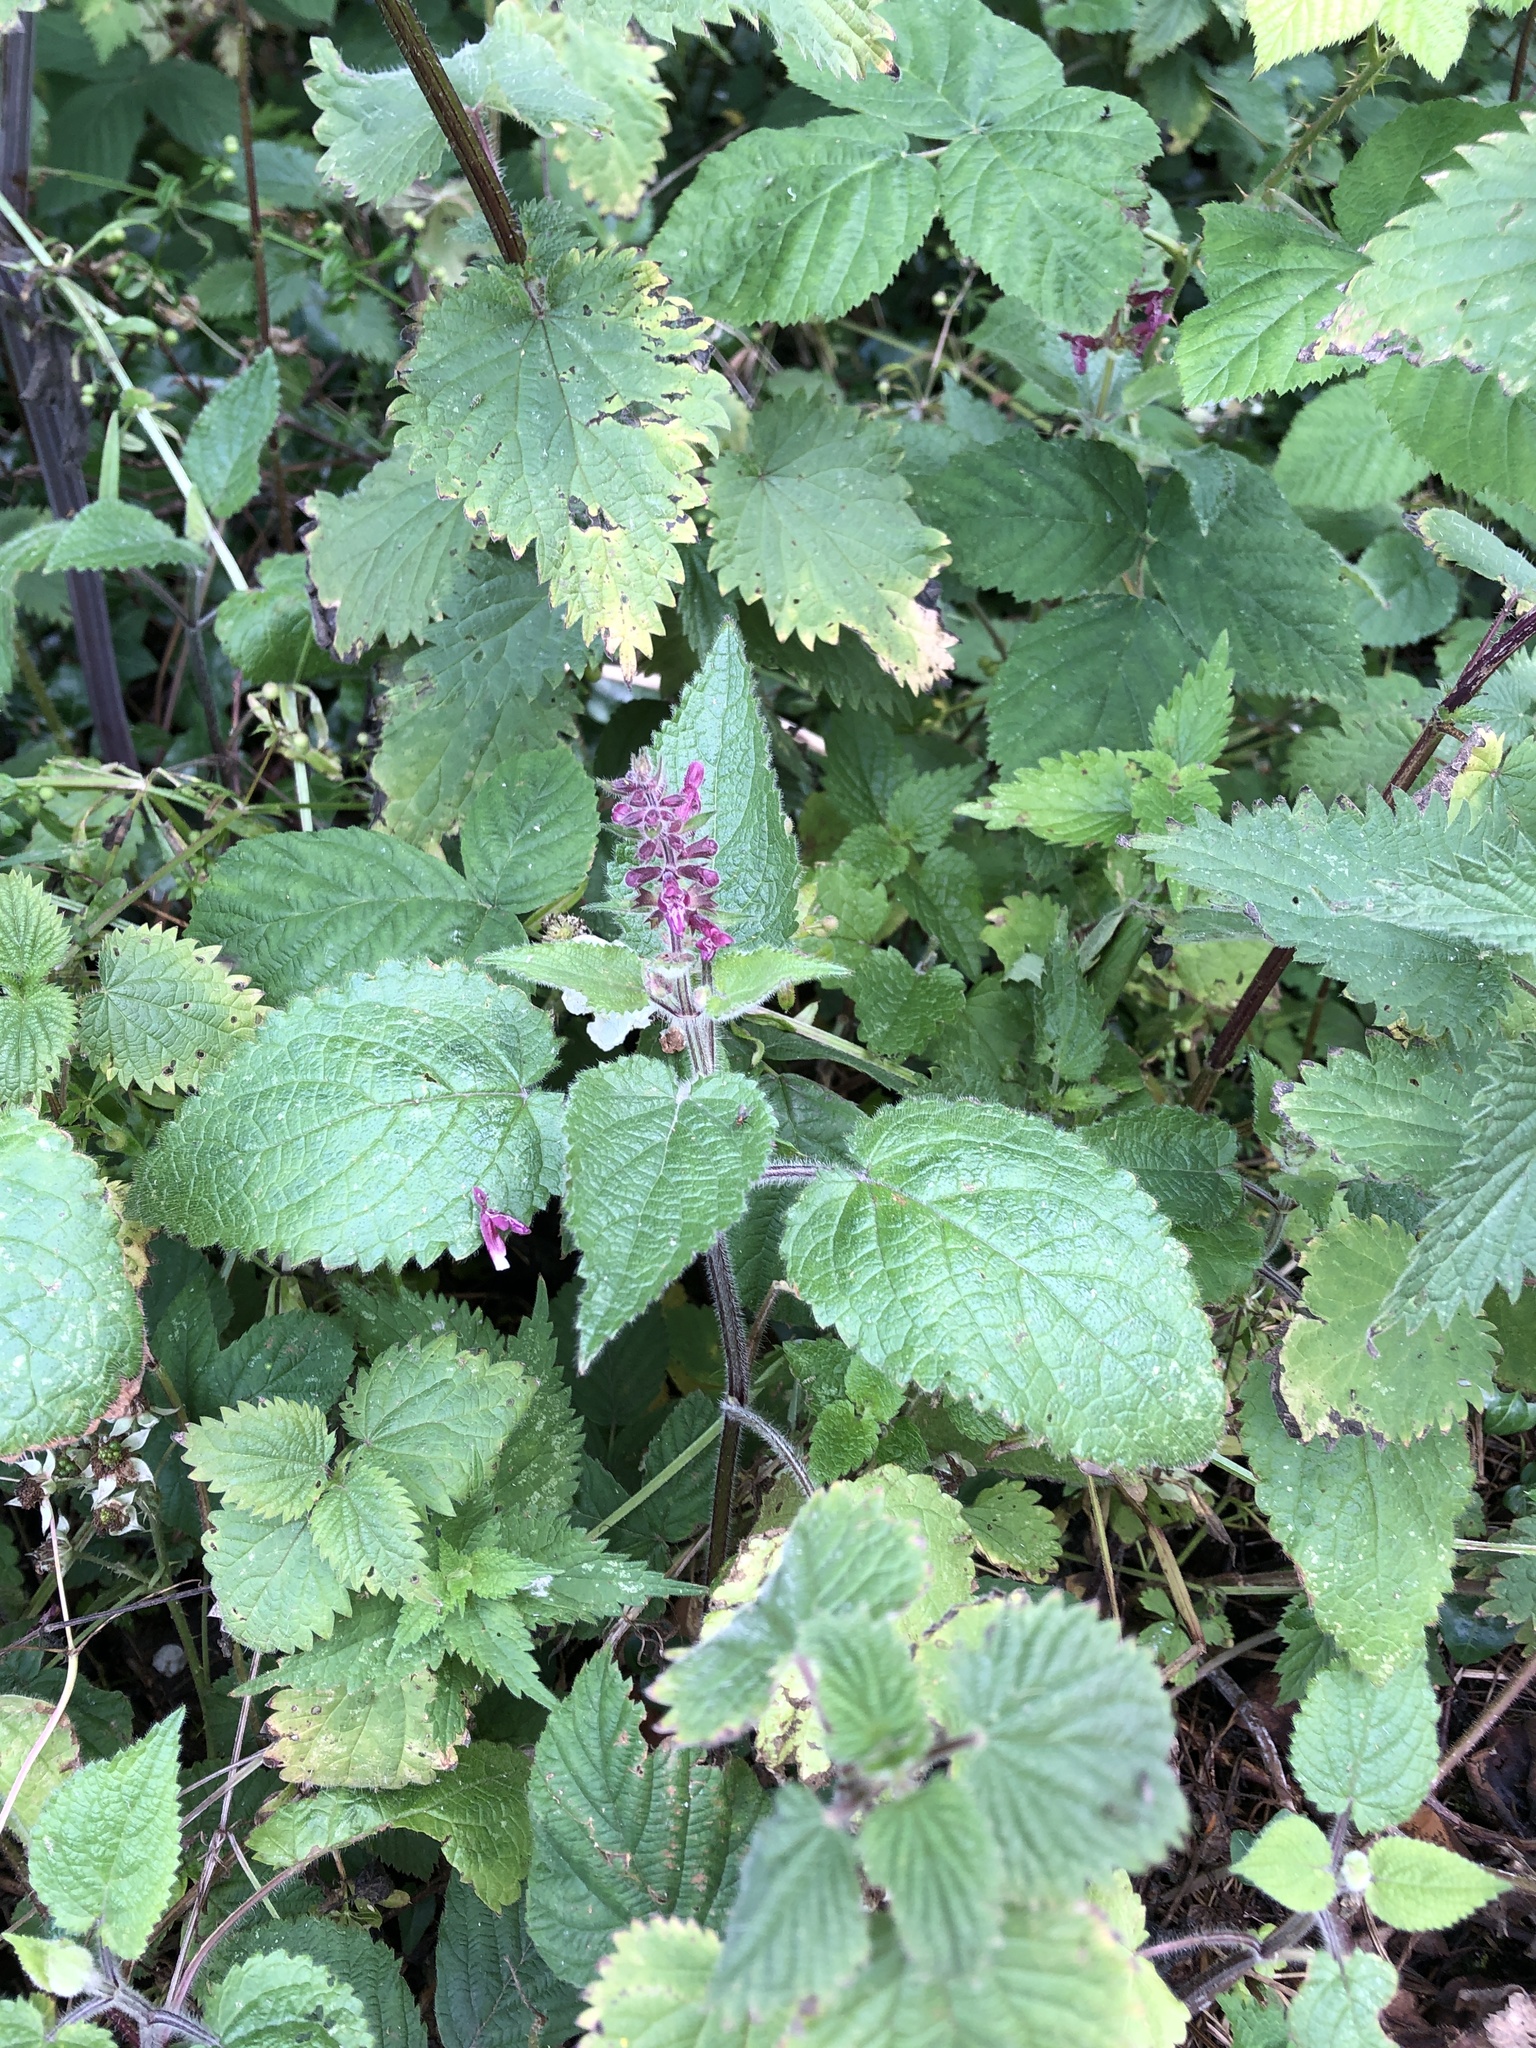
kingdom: Plantae
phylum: Tracheophyta
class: Magnoliopsida
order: Lamiales
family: Lamiaceae
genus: Stachys
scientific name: Stachys sylvatica
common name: Hedge woundwort
